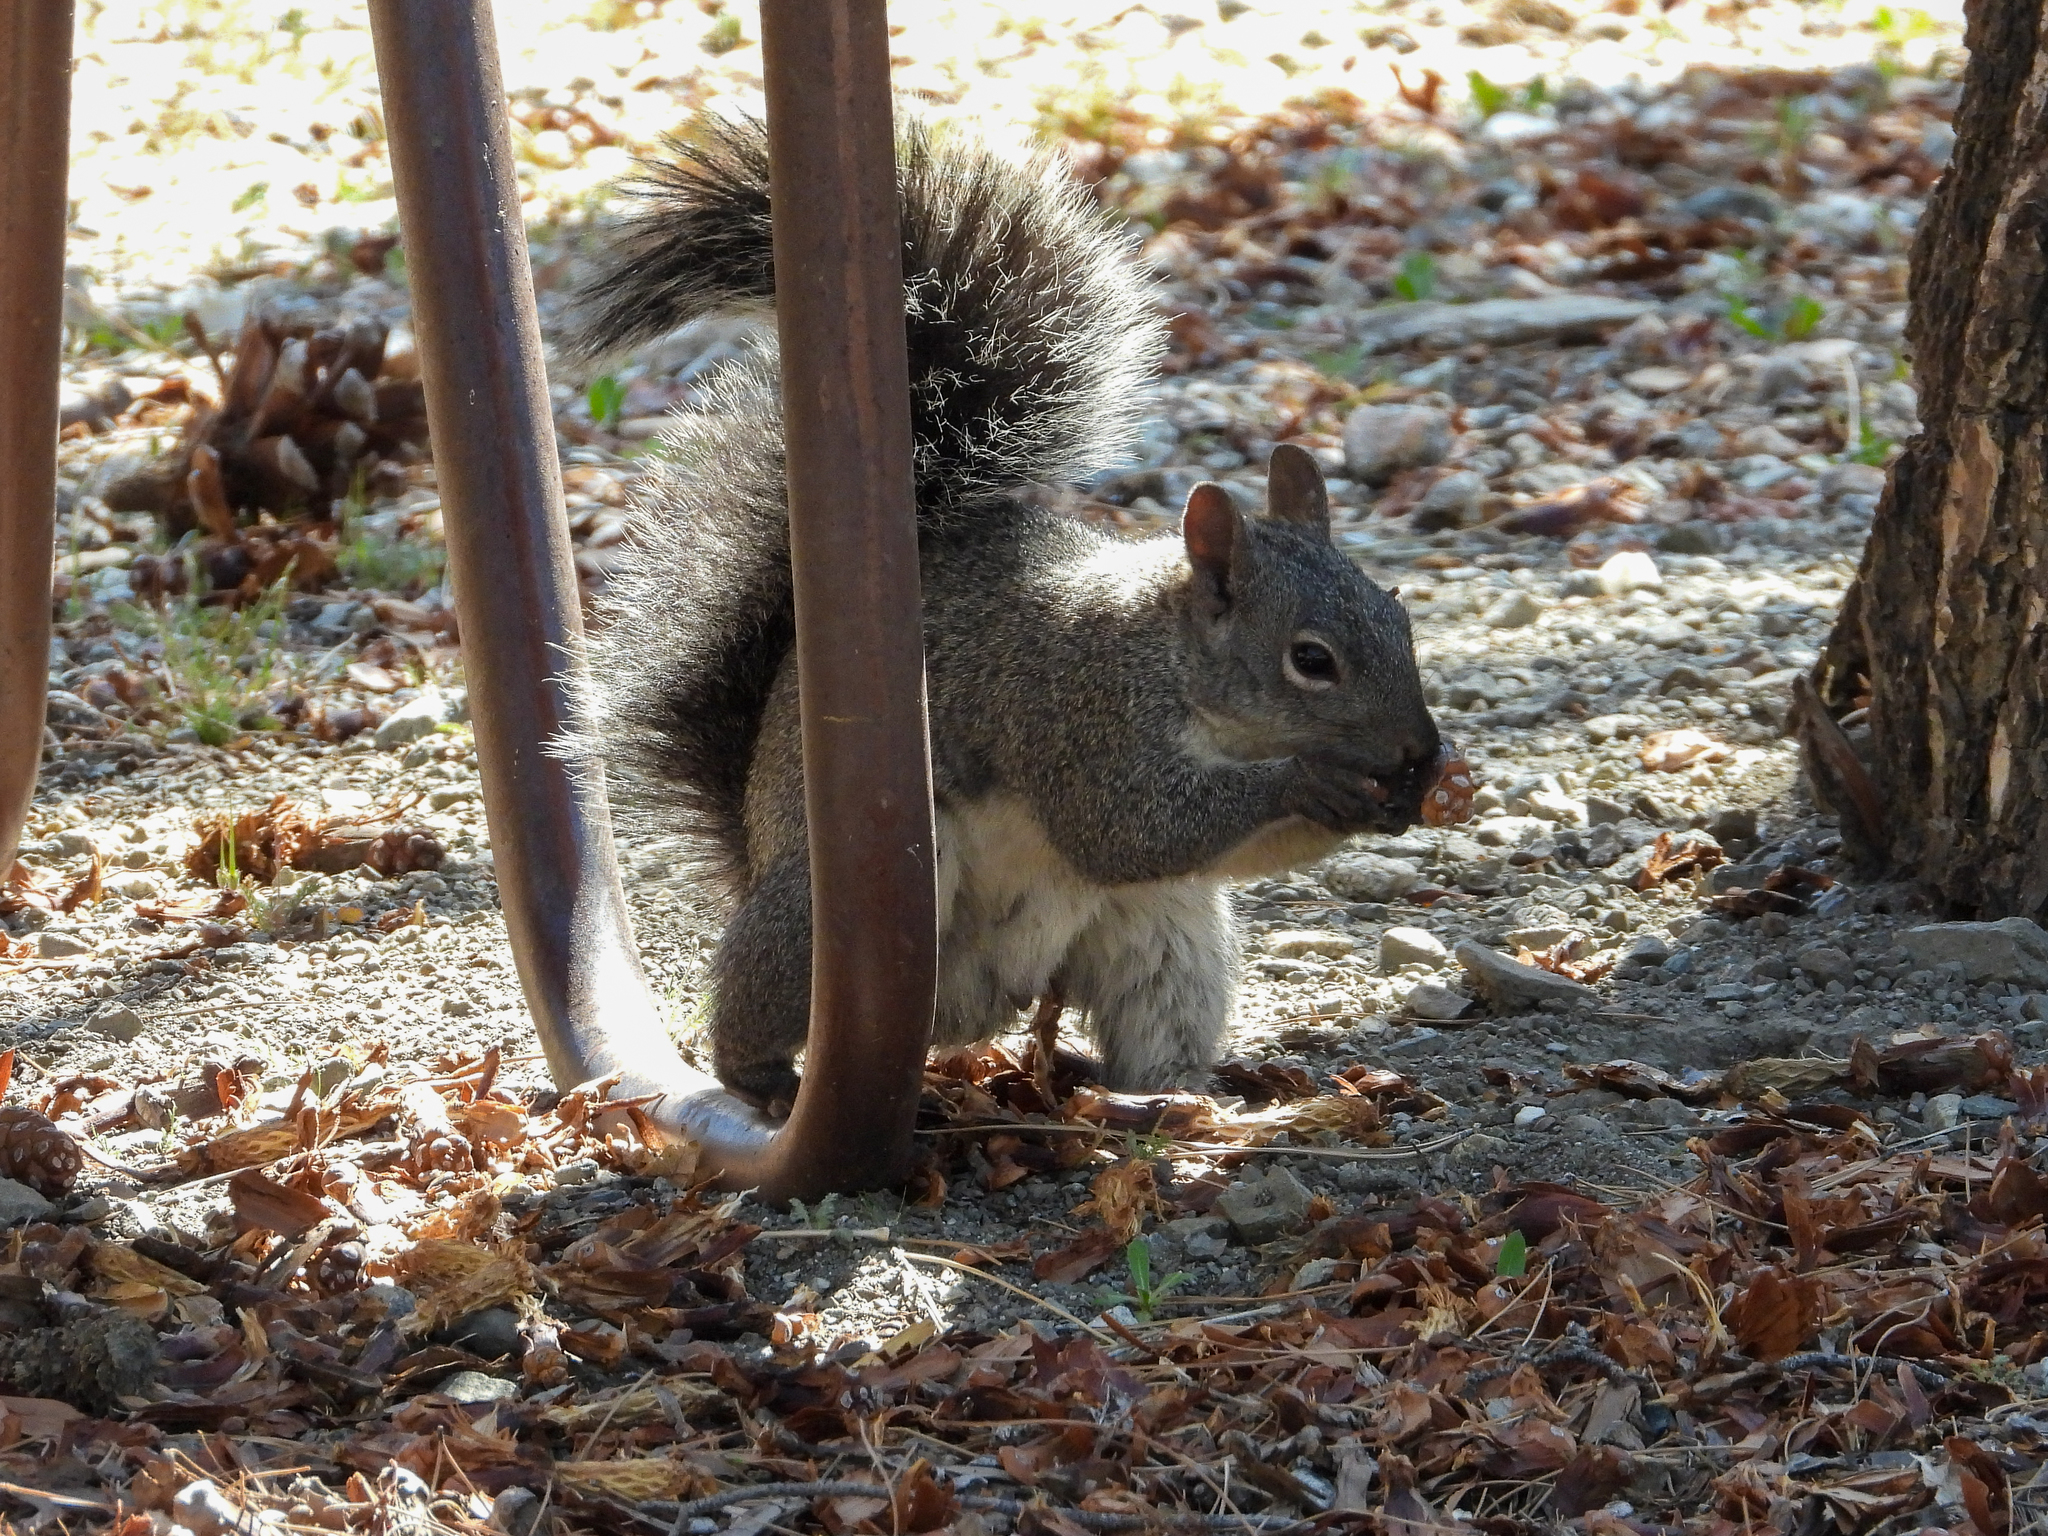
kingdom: Animalia
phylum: Chordata
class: Mammalia
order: Rodentia
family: Sciuridae
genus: Sciurus
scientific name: Sciurus griseus
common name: Western gray squirrel
